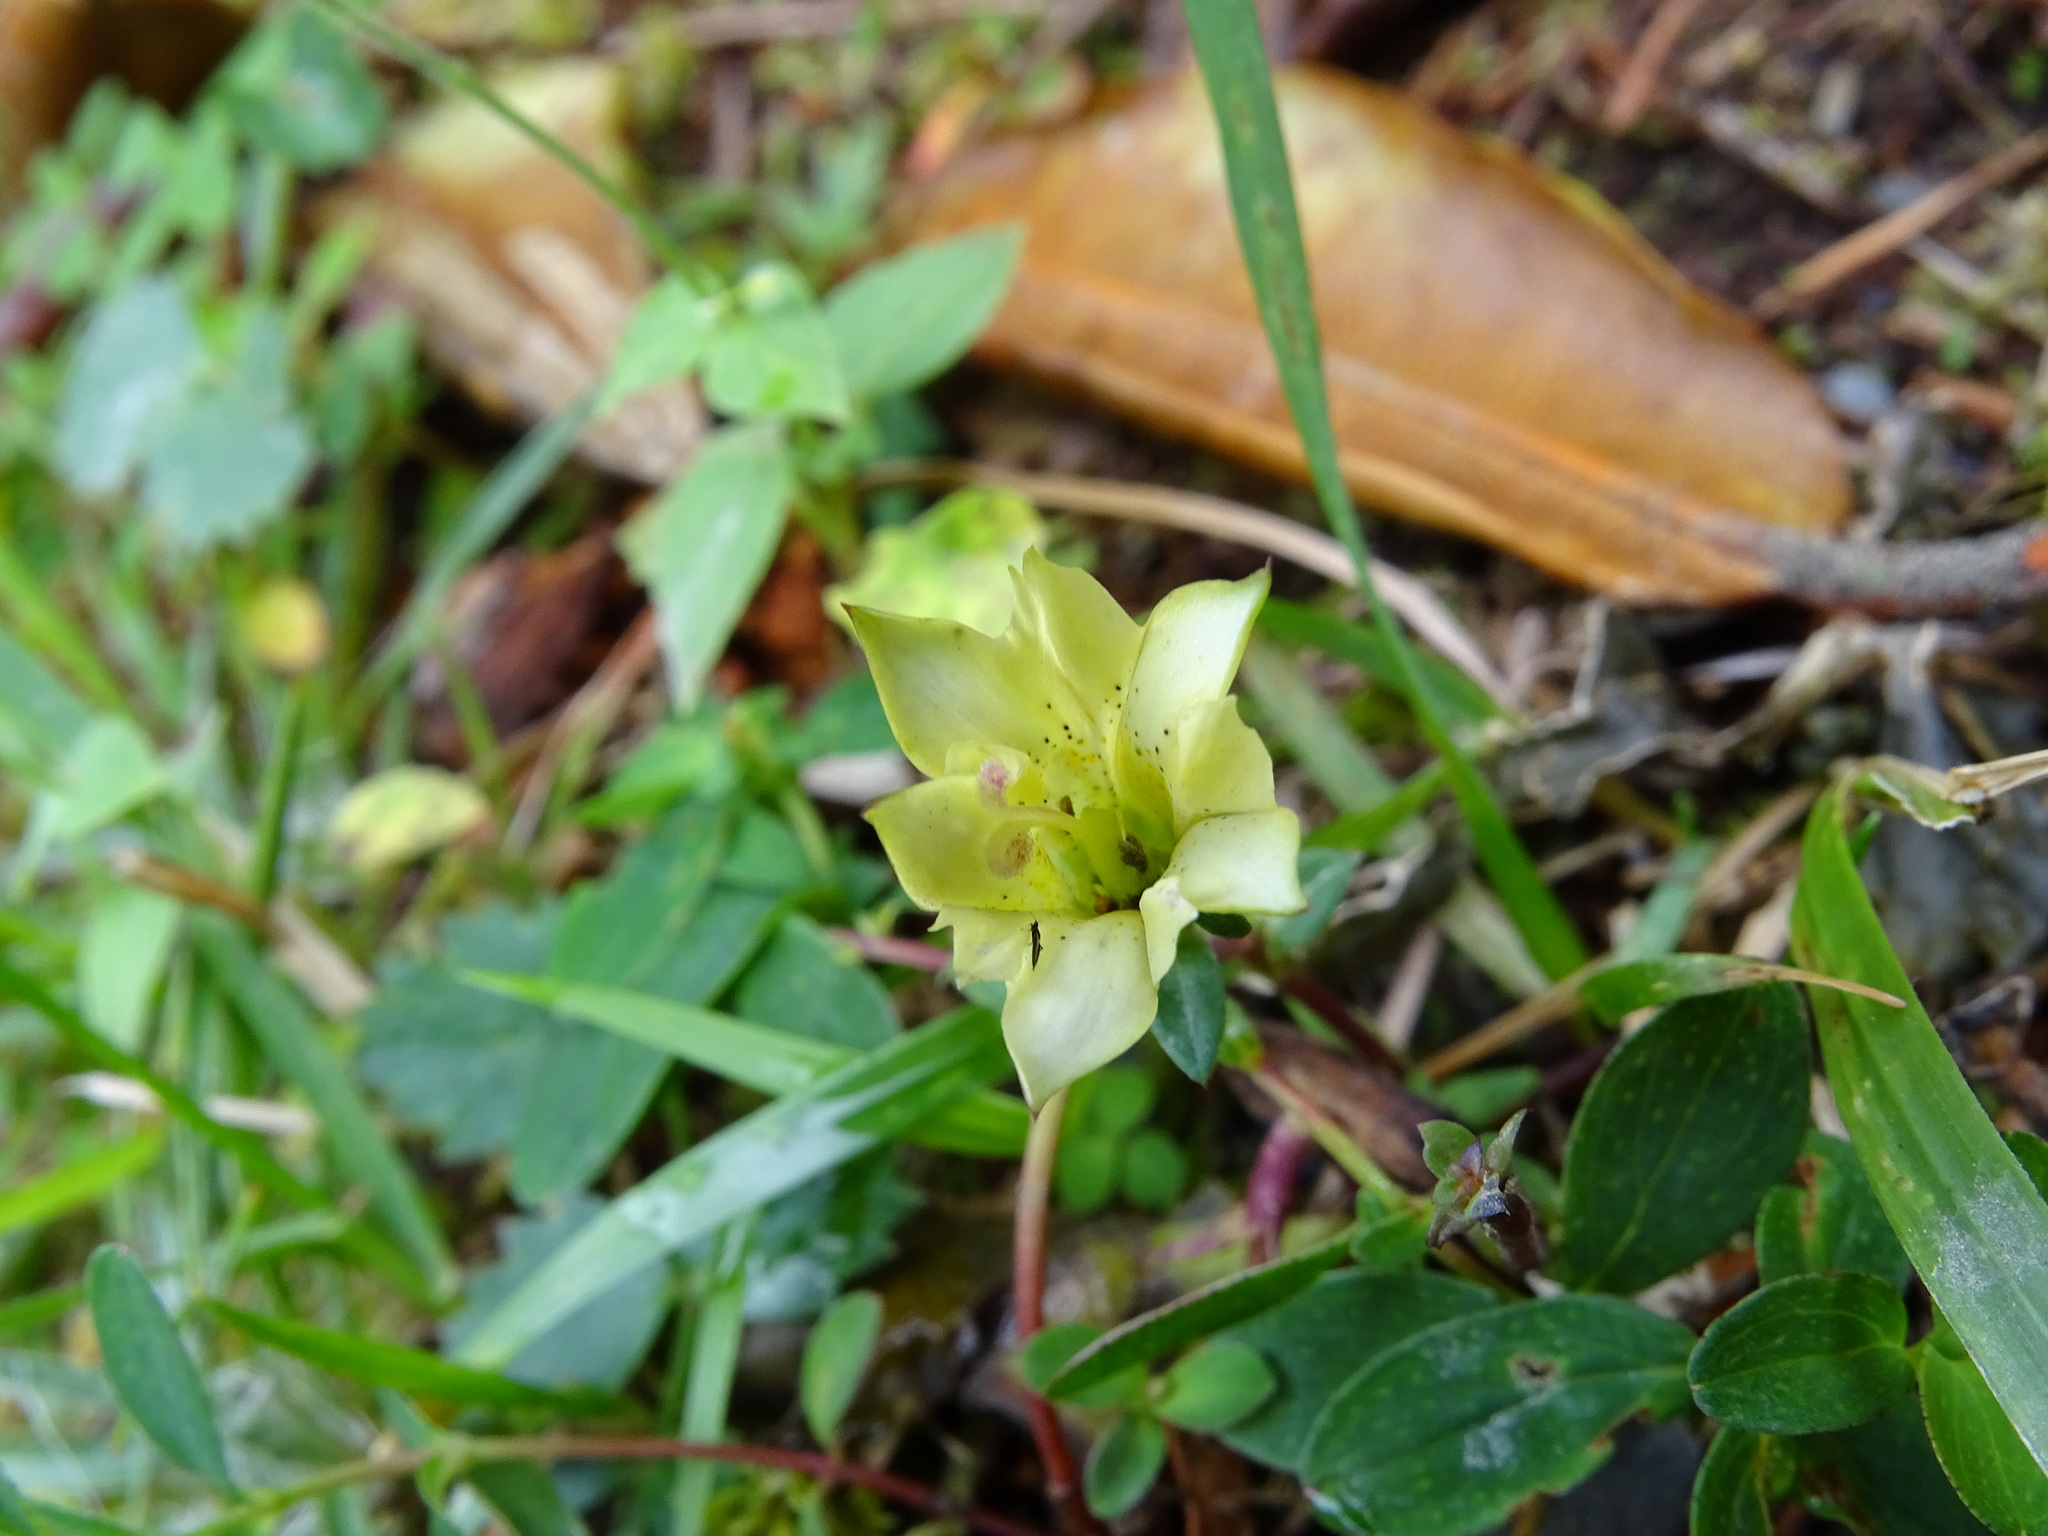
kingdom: Plantae
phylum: Tracheophyta
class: Magnoliopsida
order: Gentianales
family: Gentianaceae
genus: Gentiana
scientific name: Gentiana scabrida
